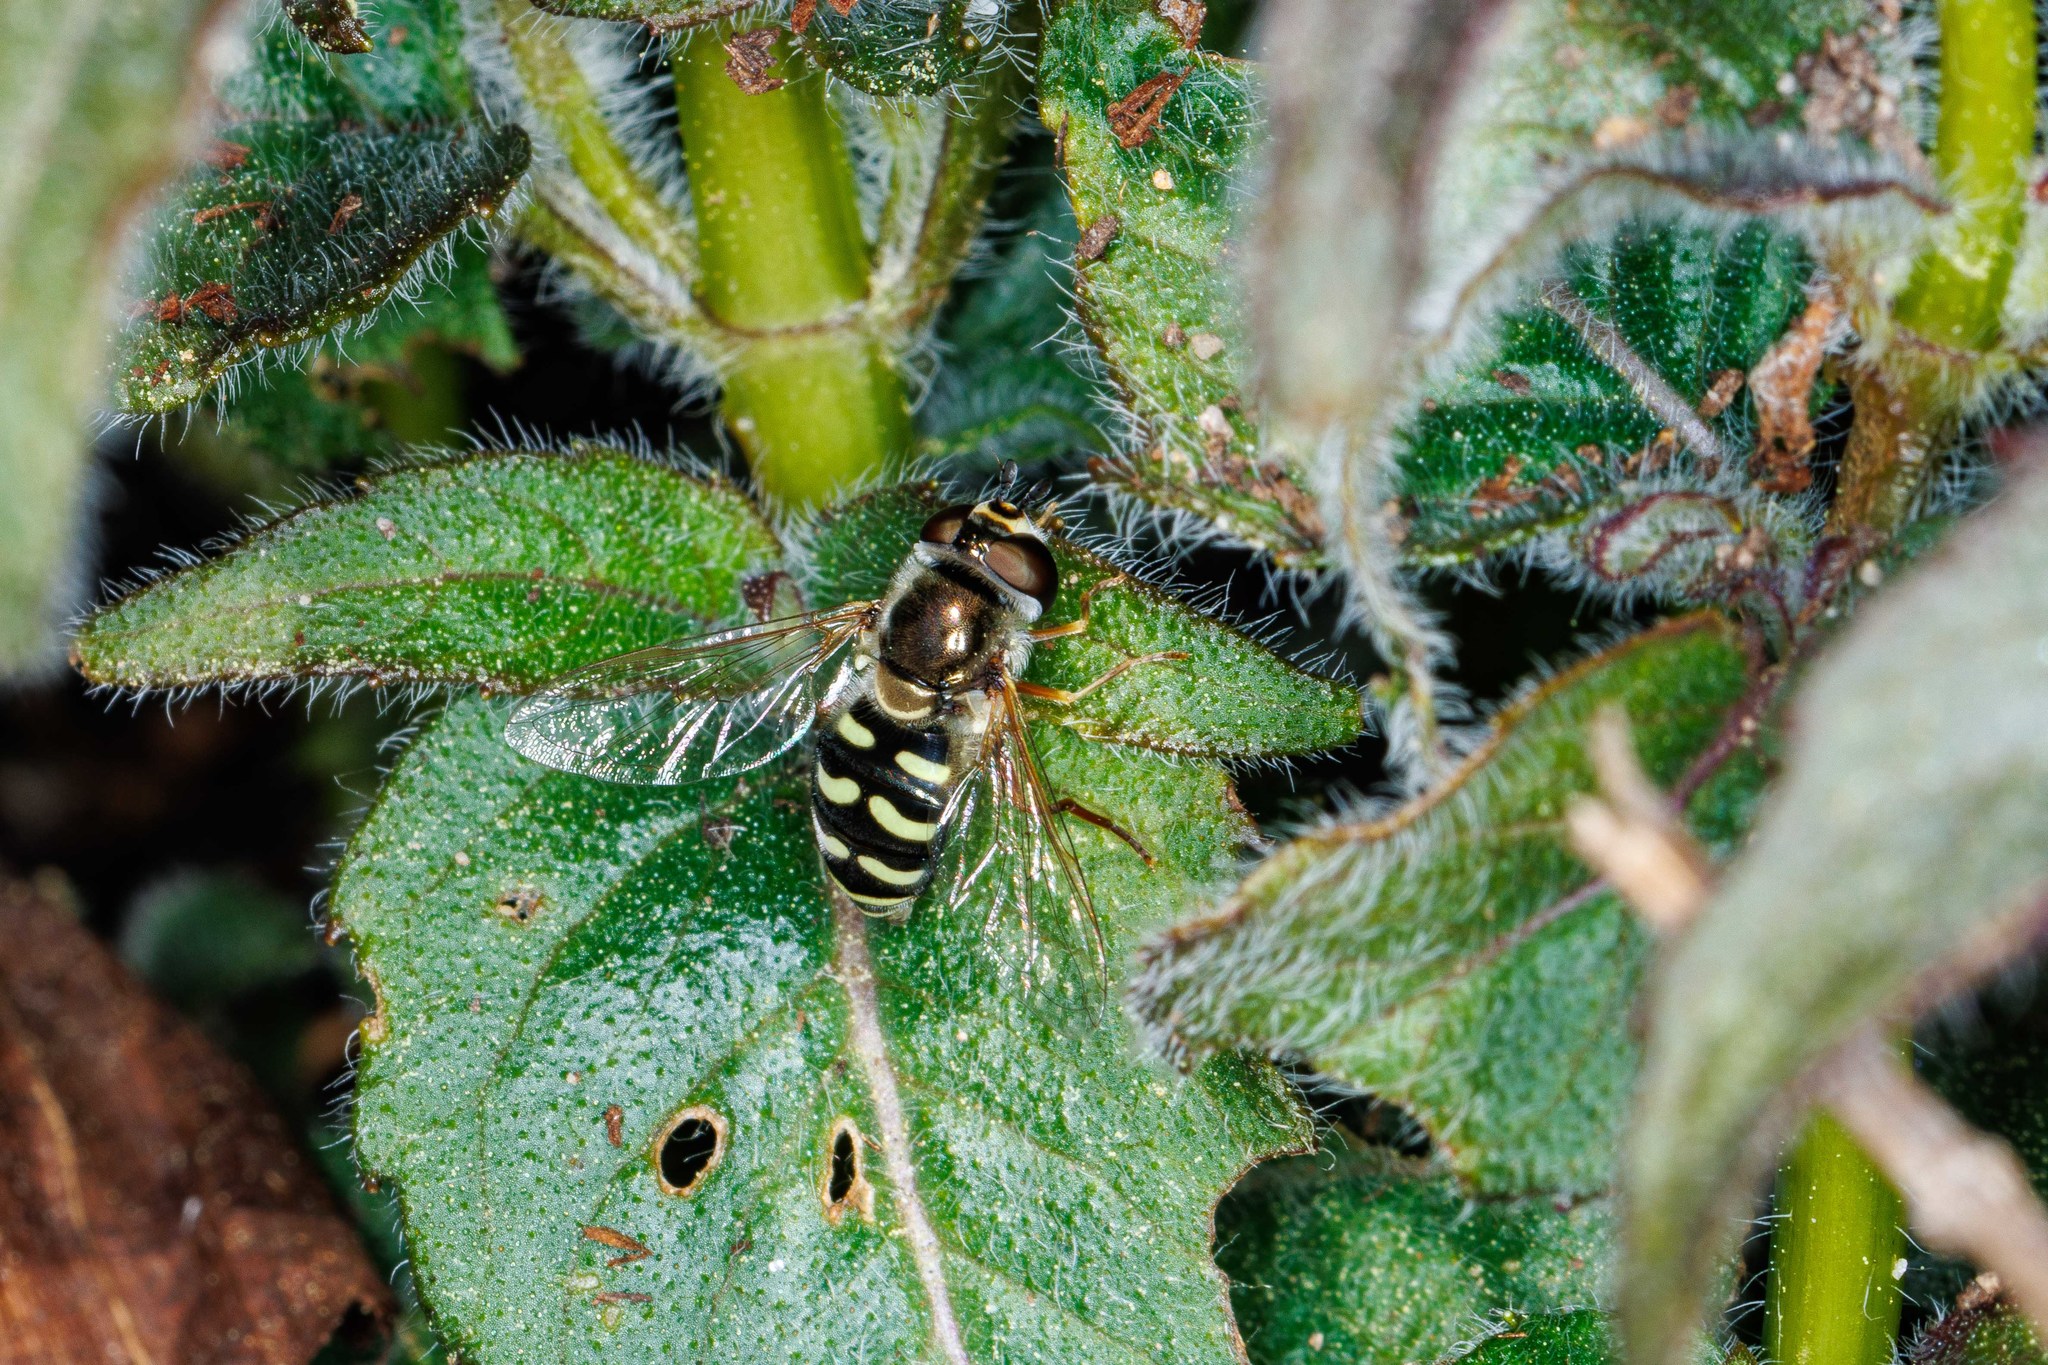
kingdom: Animalia
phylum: Arthropoda
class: Insecta
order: Diptera
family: Syrphidae
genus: Eupeodes
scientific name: Eupeodes volucris
